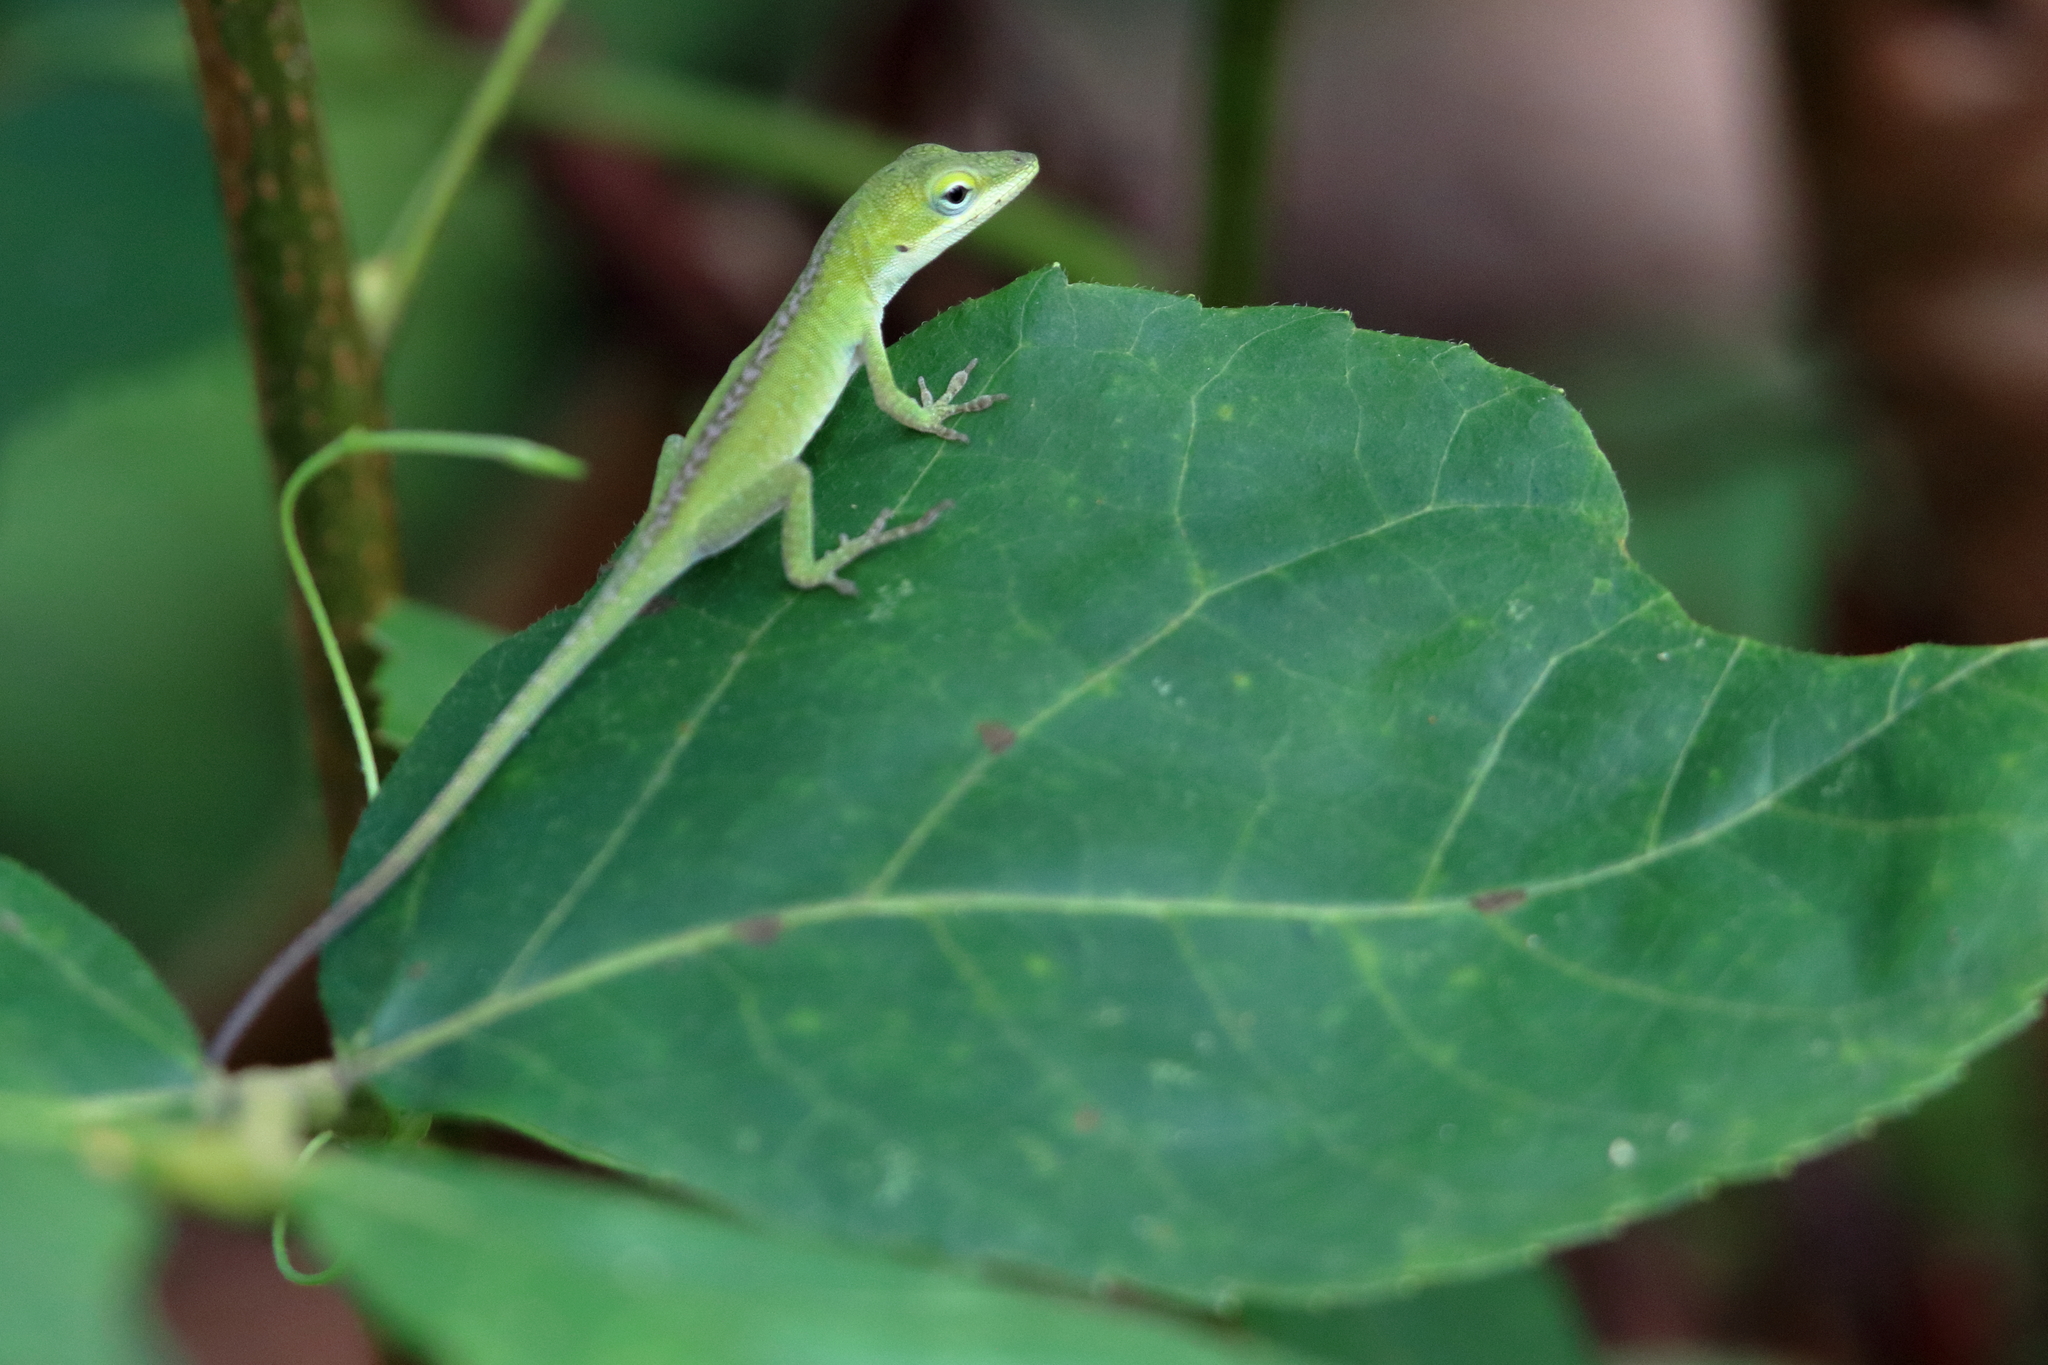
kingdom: Animalia
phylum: Chordata
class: Squamata
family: Dactyloidae
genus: Anolis
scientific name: Anolis carolinensis
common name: Green anole
